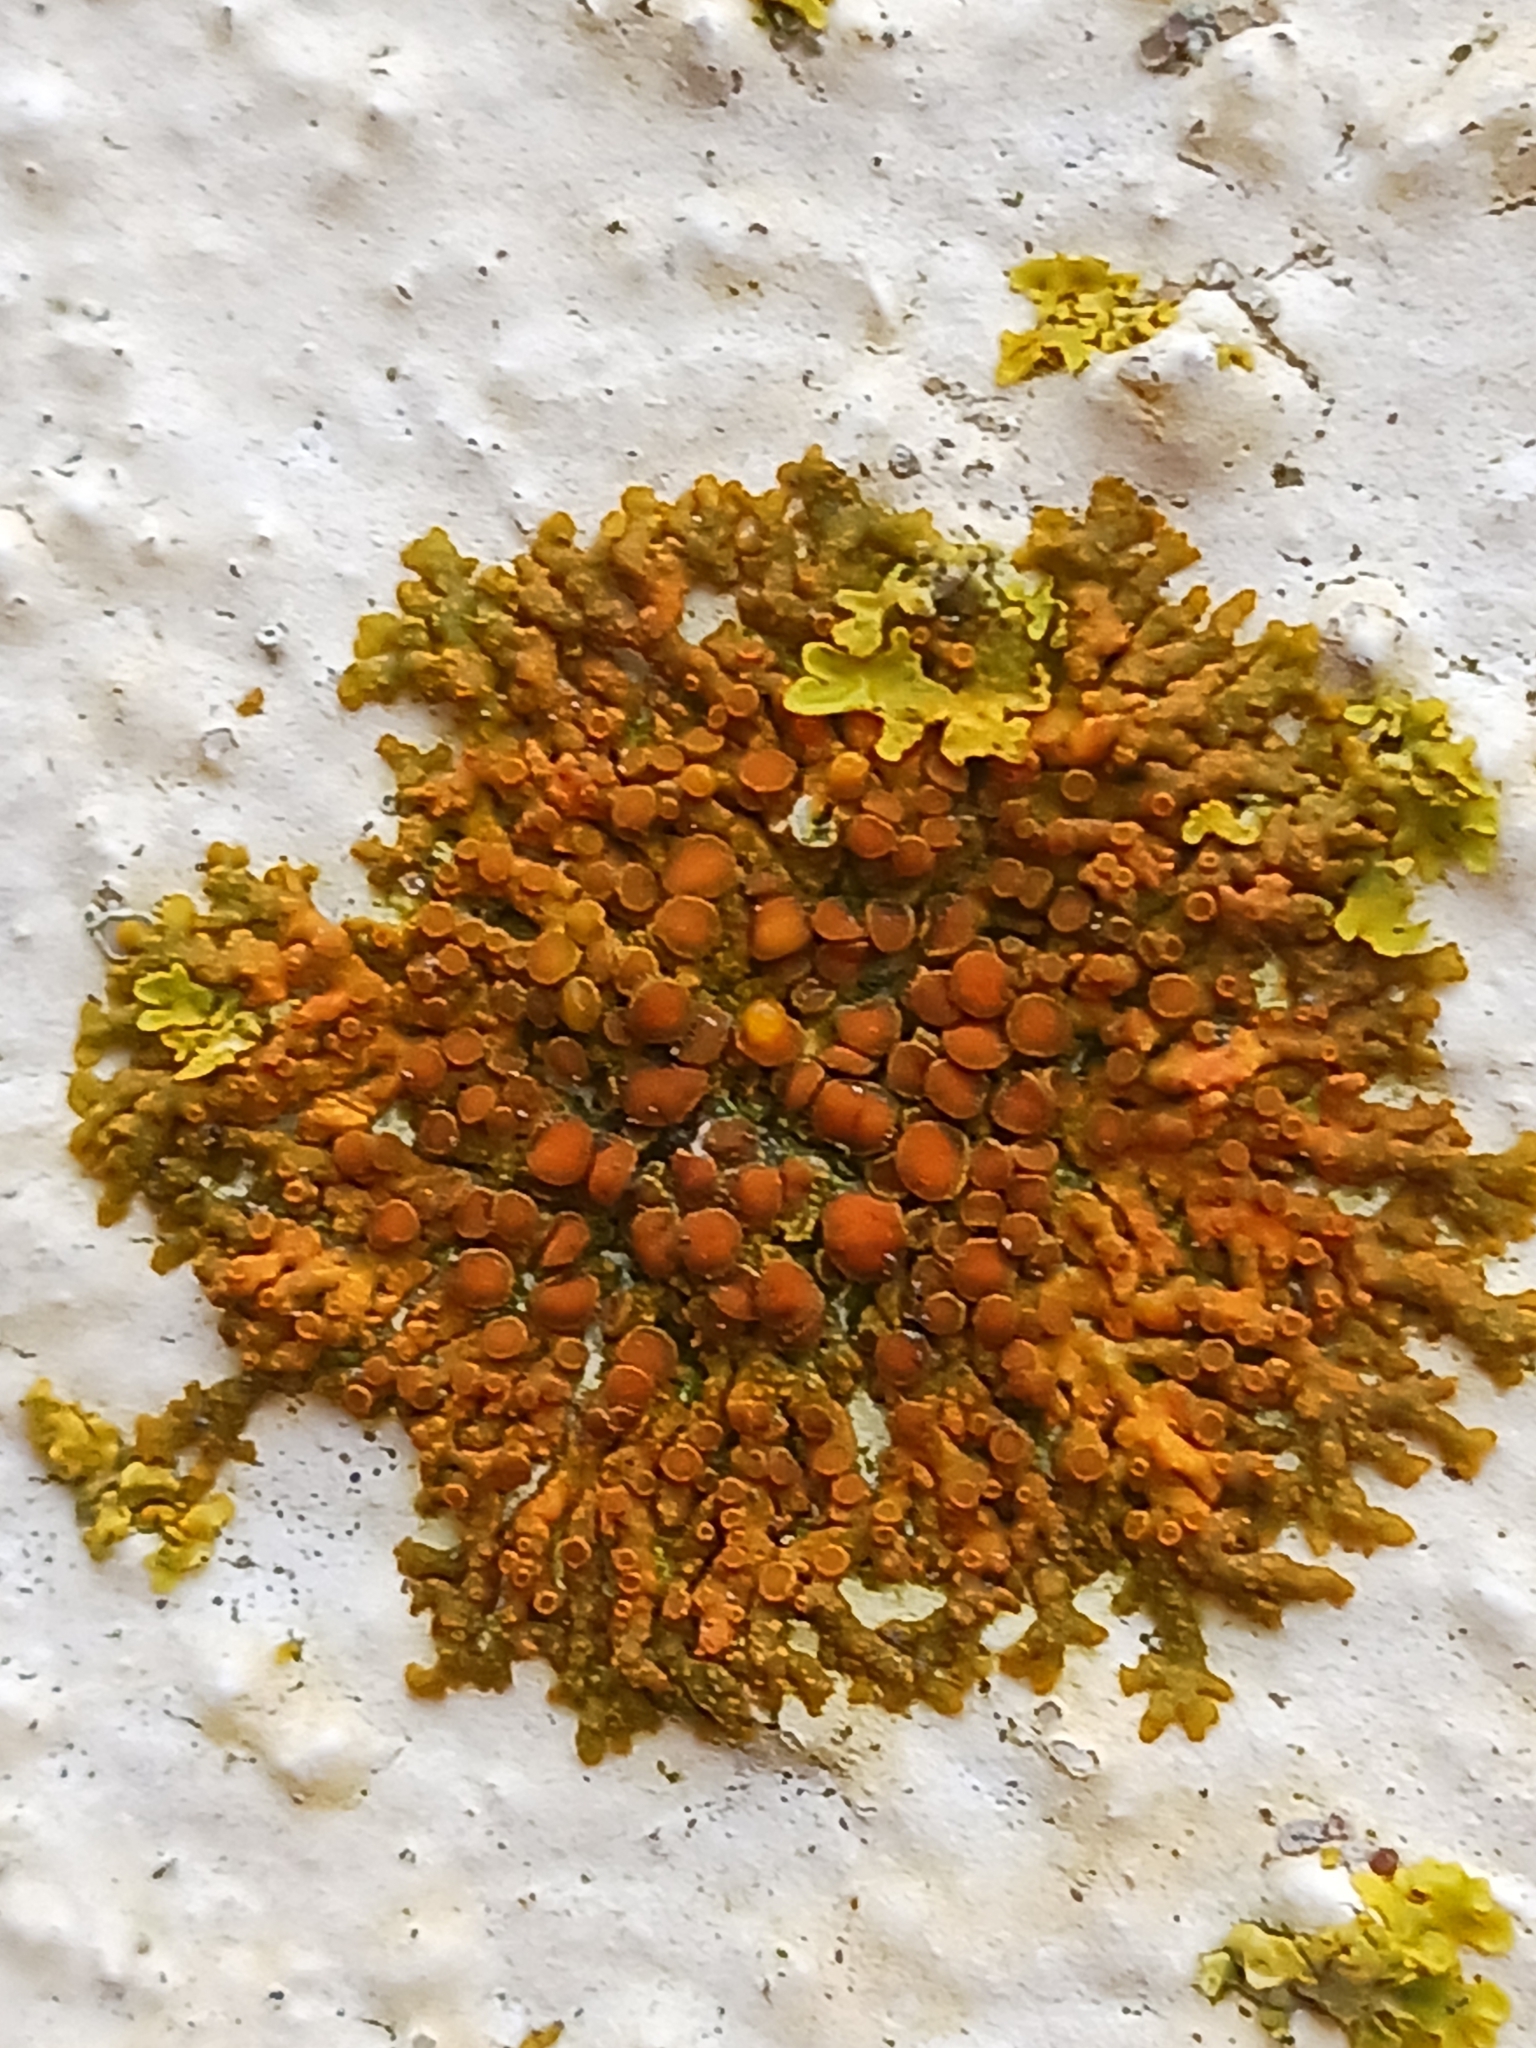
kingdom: Fungi
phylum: Ascomycota
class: Lecanoromycetes
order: Teloschistales
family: Teloschistaceae
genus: Xanthoria
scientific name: Xanthoria elegans
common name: Elegant sunburst lichen
